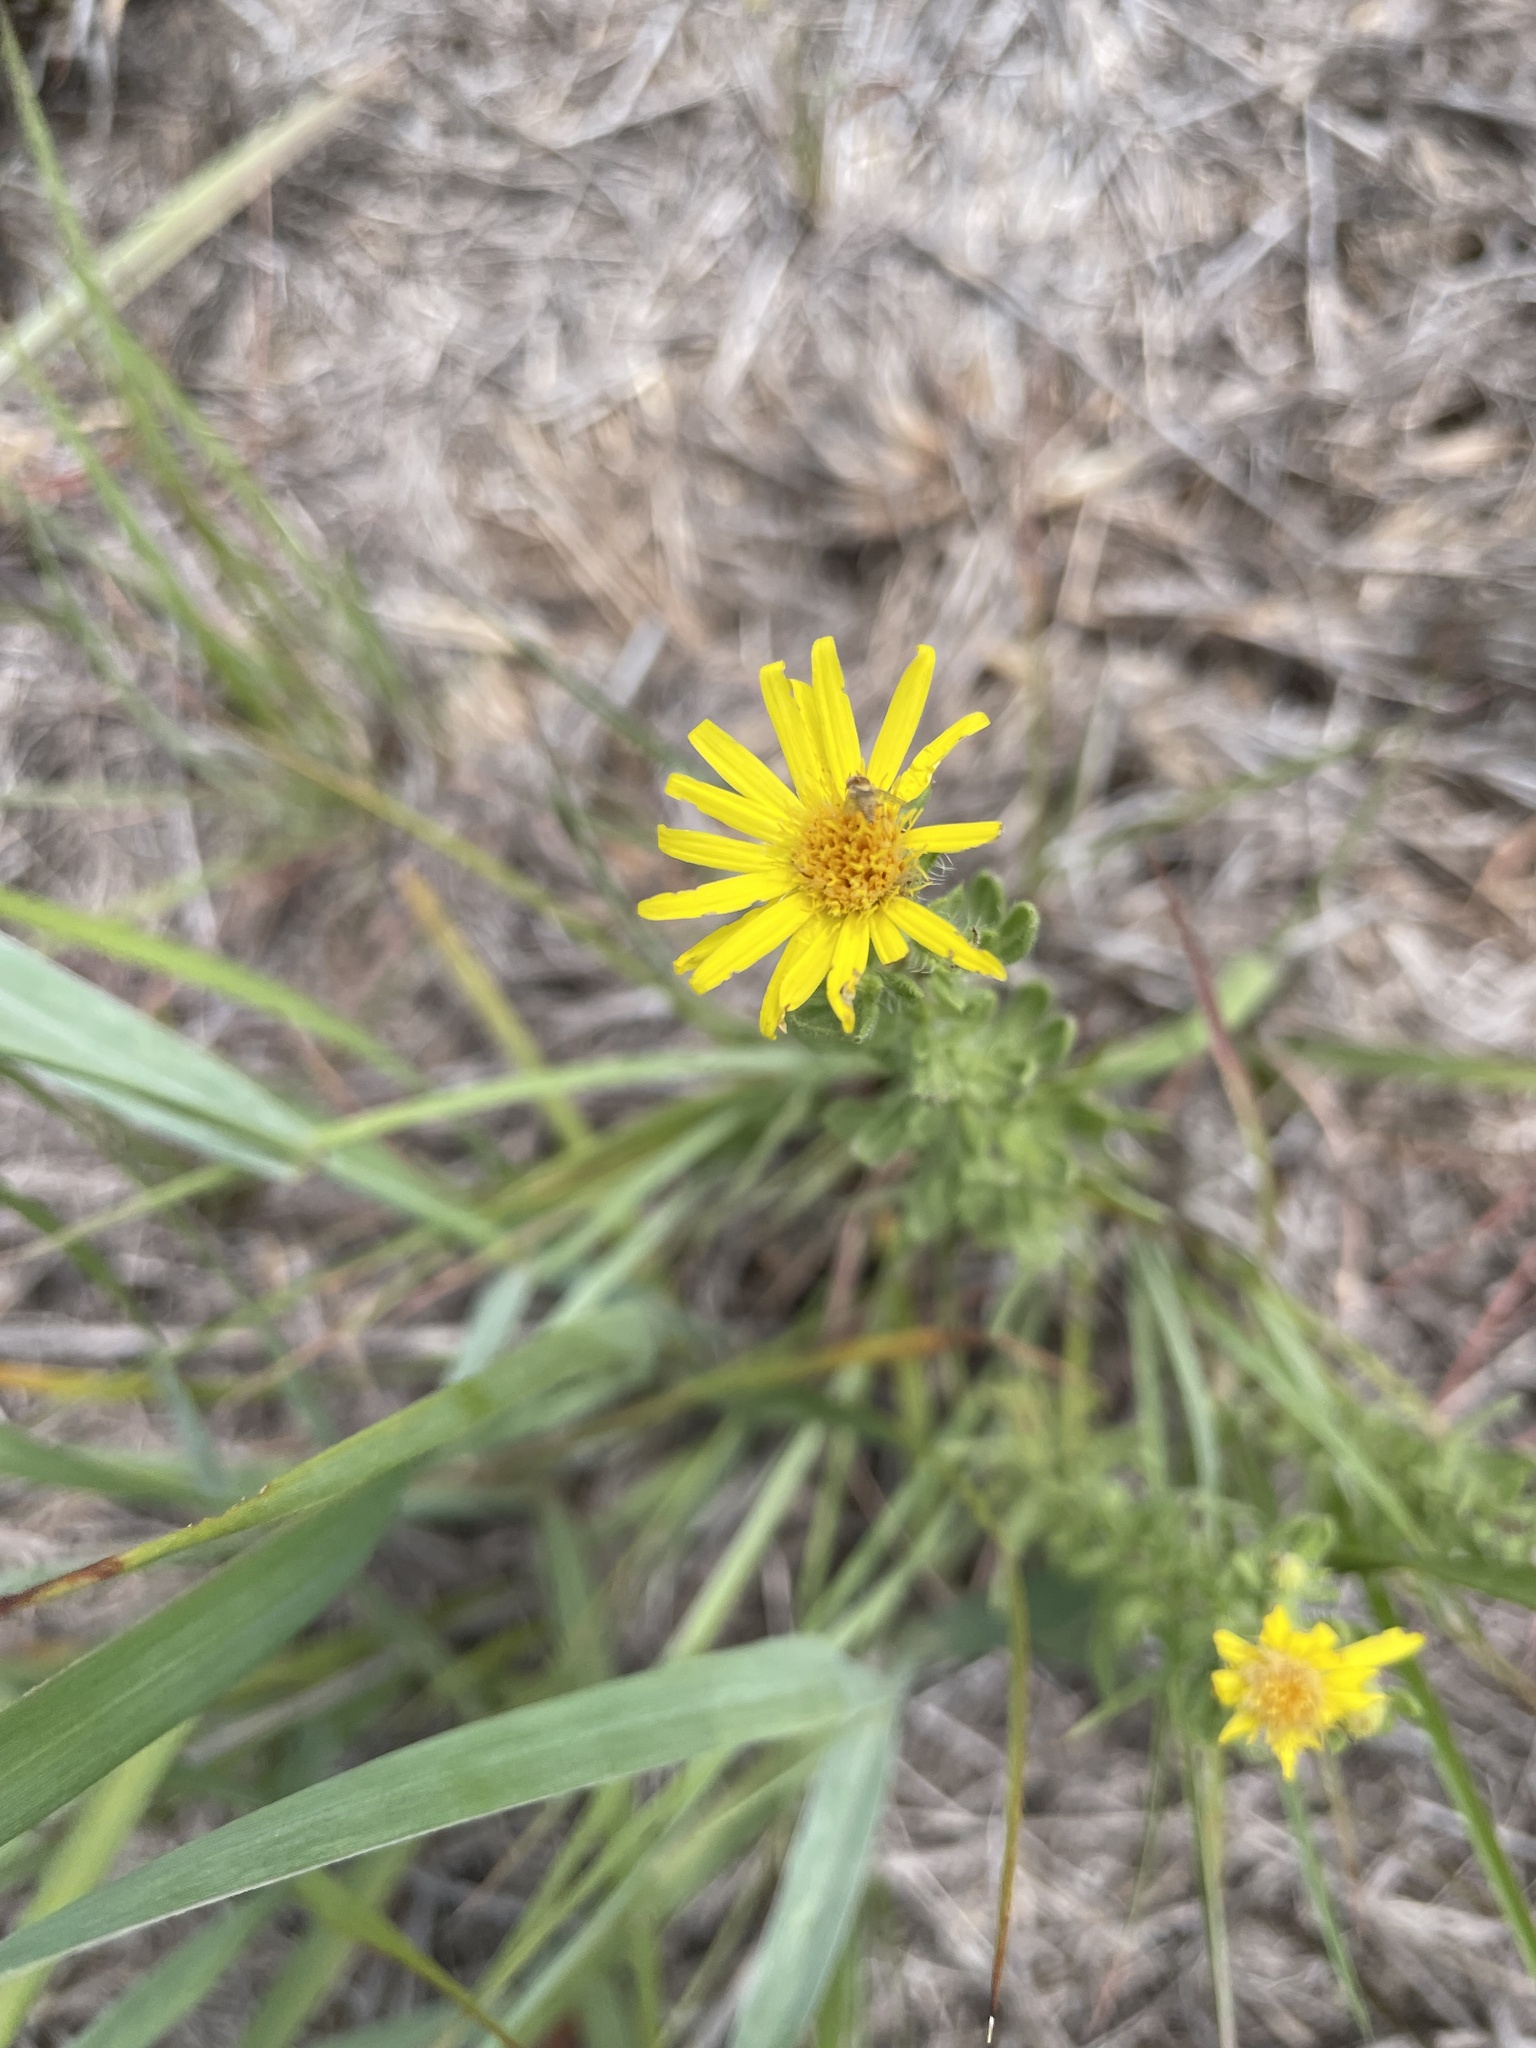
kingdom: Plantae
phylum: Tracheophyta
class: Magnoliopsida
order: Asterales
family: Asteraceae
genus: Heterotheca
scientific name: Heterotheca stenophylla
